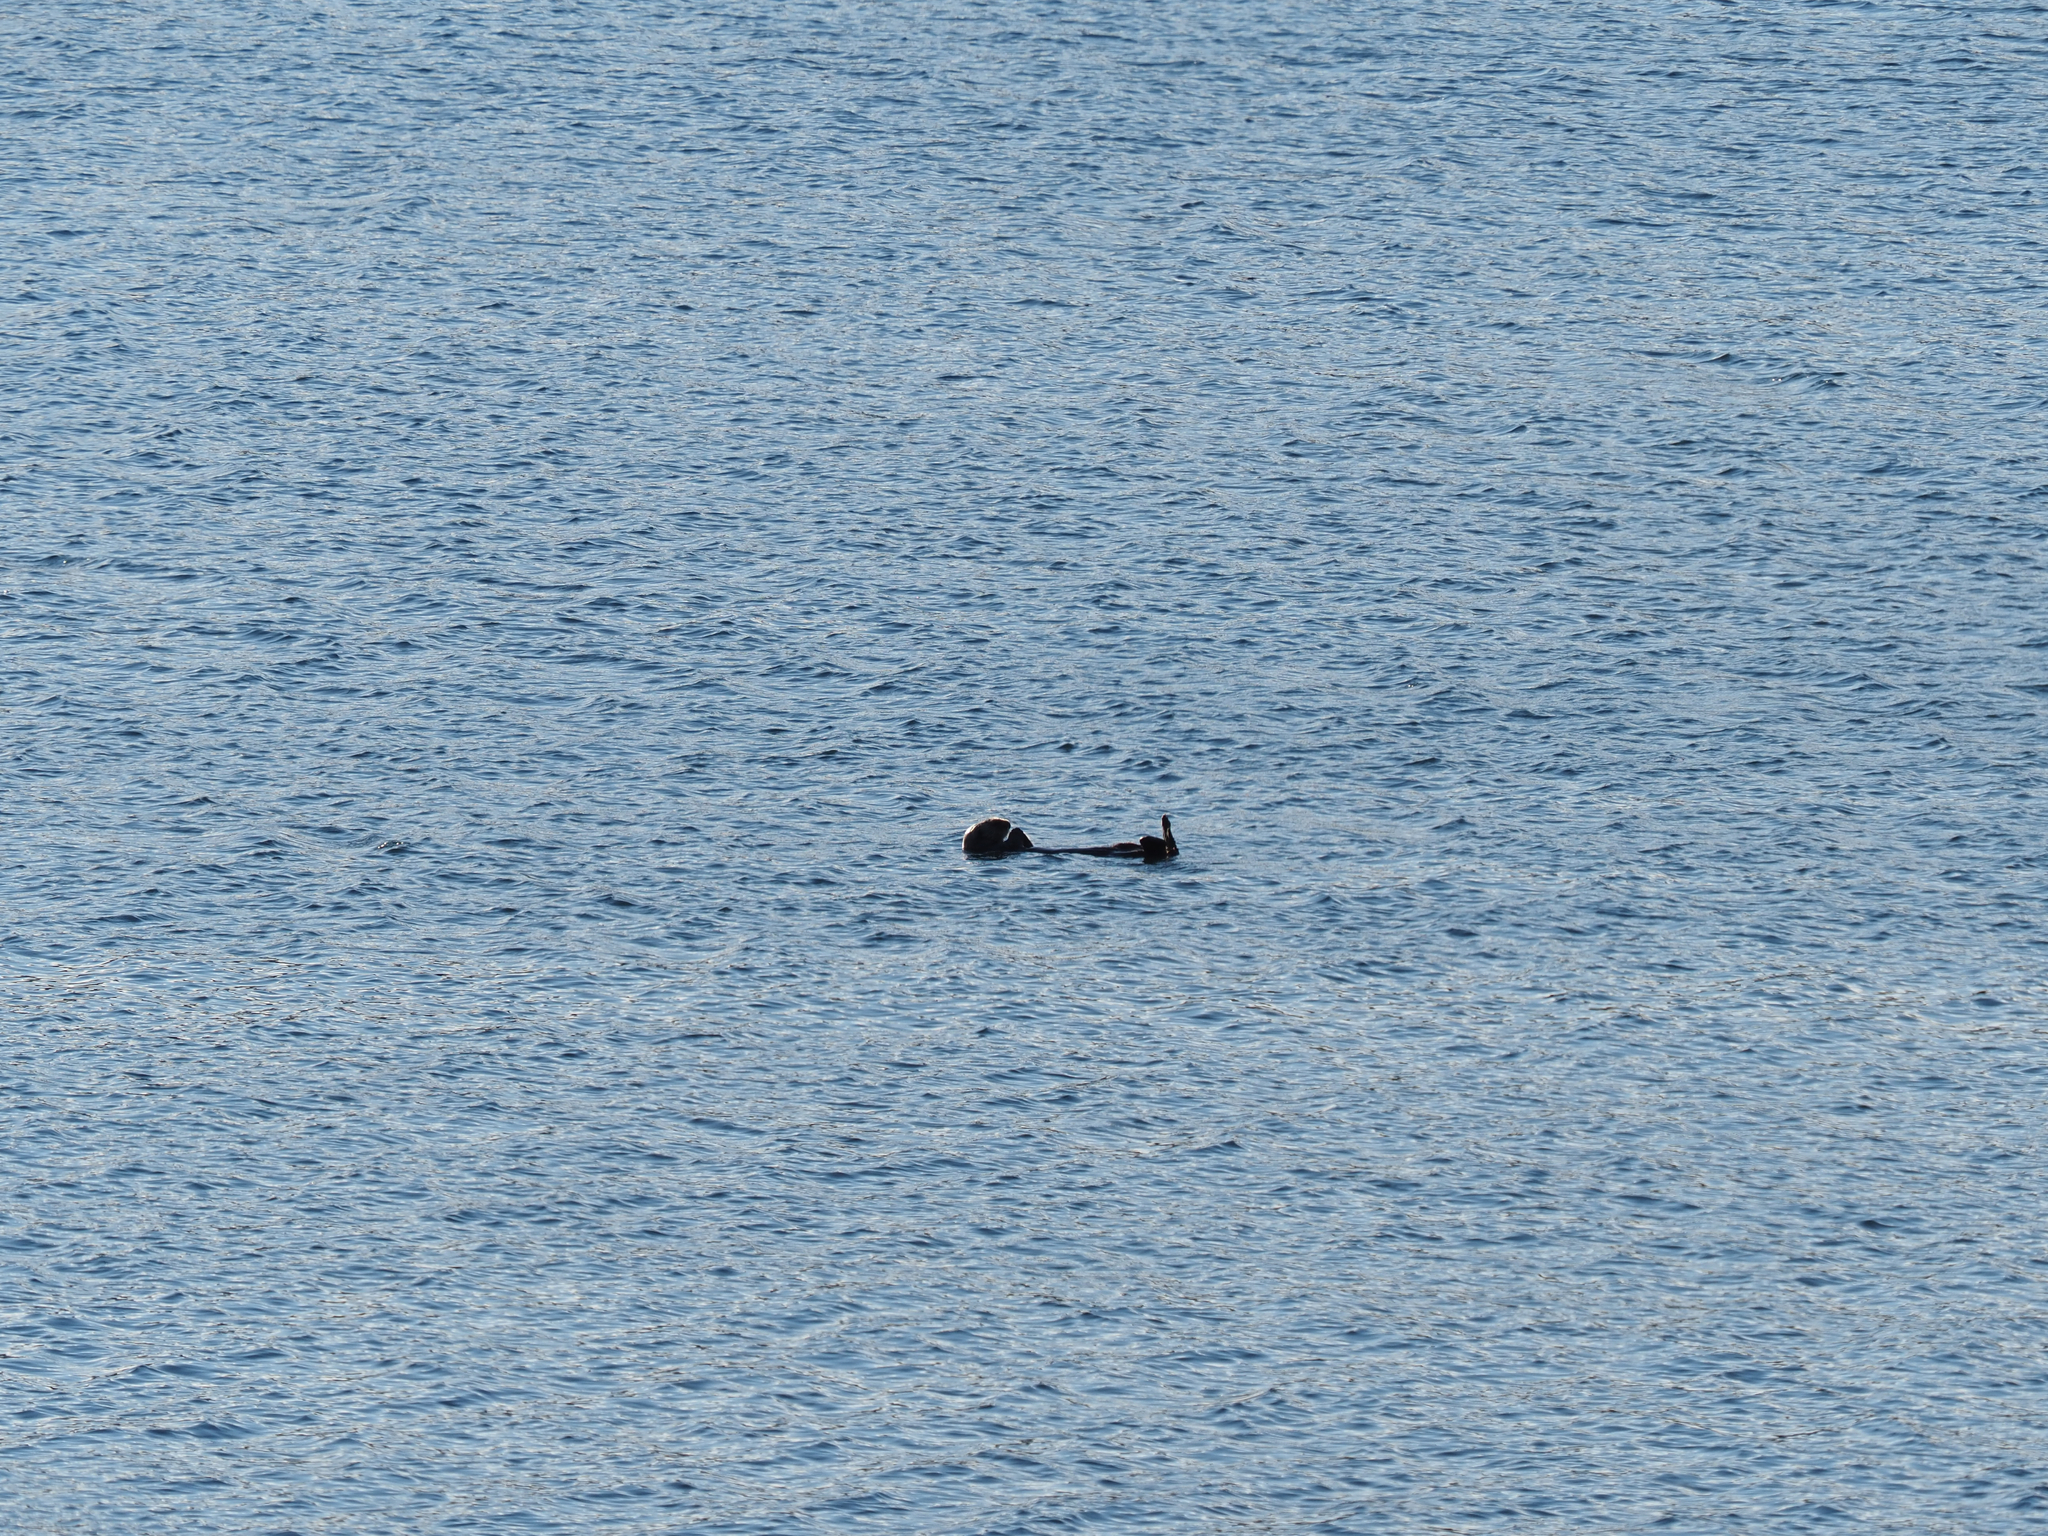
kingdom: Animalia
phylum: Chordata
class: Mammalia
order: Carnivora
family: Mustelidae
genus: Enhydra
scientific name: Enhydra lutris
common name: Sea otter
